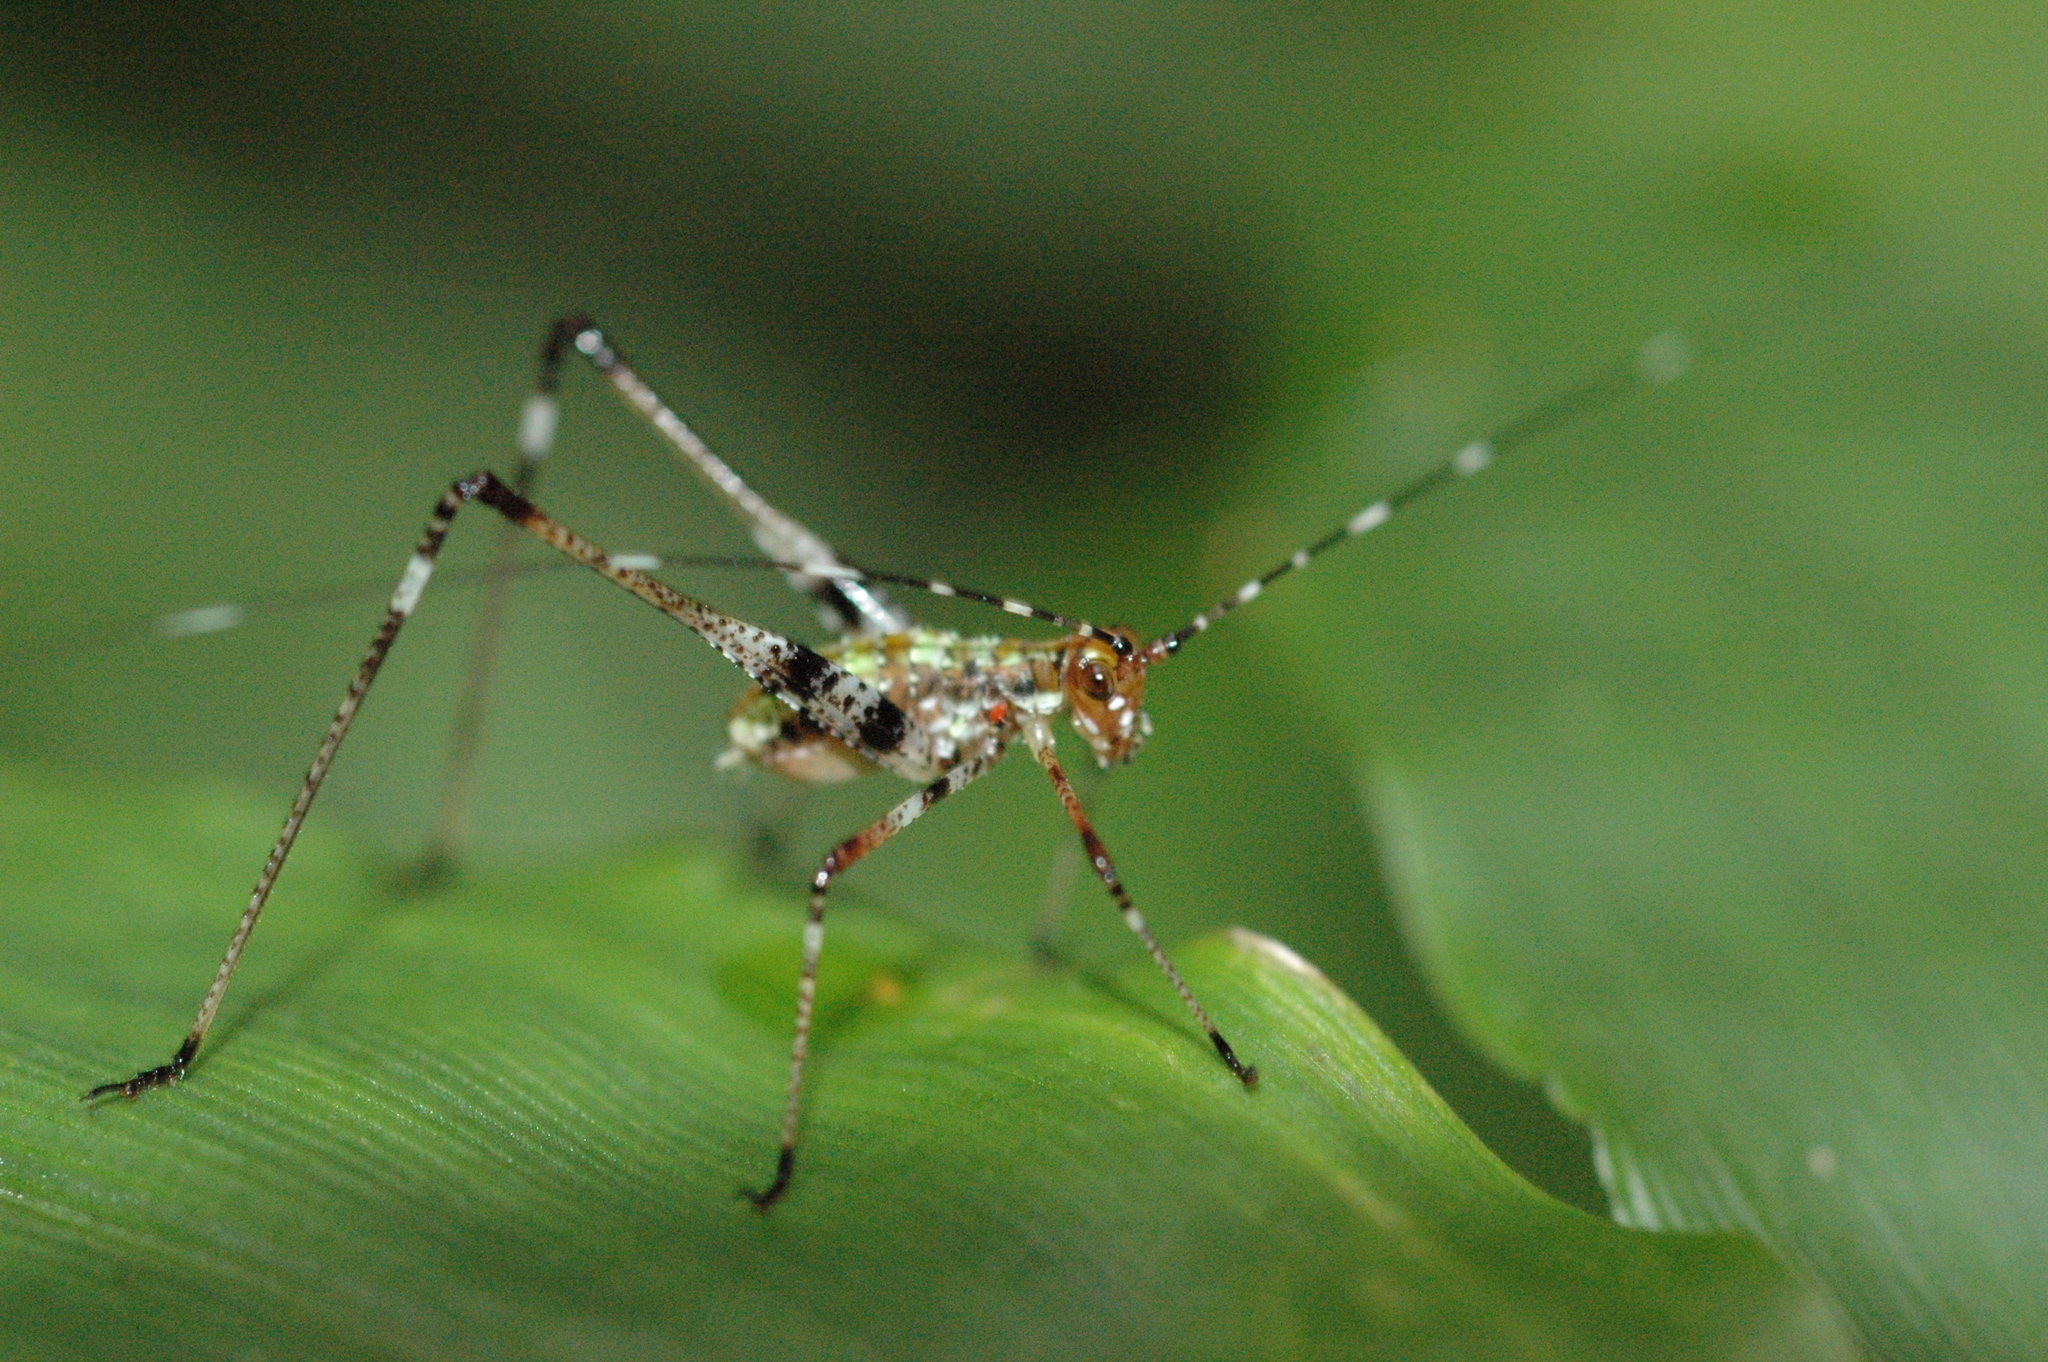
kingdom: Animalia
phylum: Arthropoda
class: Insecta
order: Orthoptera
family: Tettigoniidae
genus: Phaneroptera
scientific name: Phaneroptera nigroantennata
